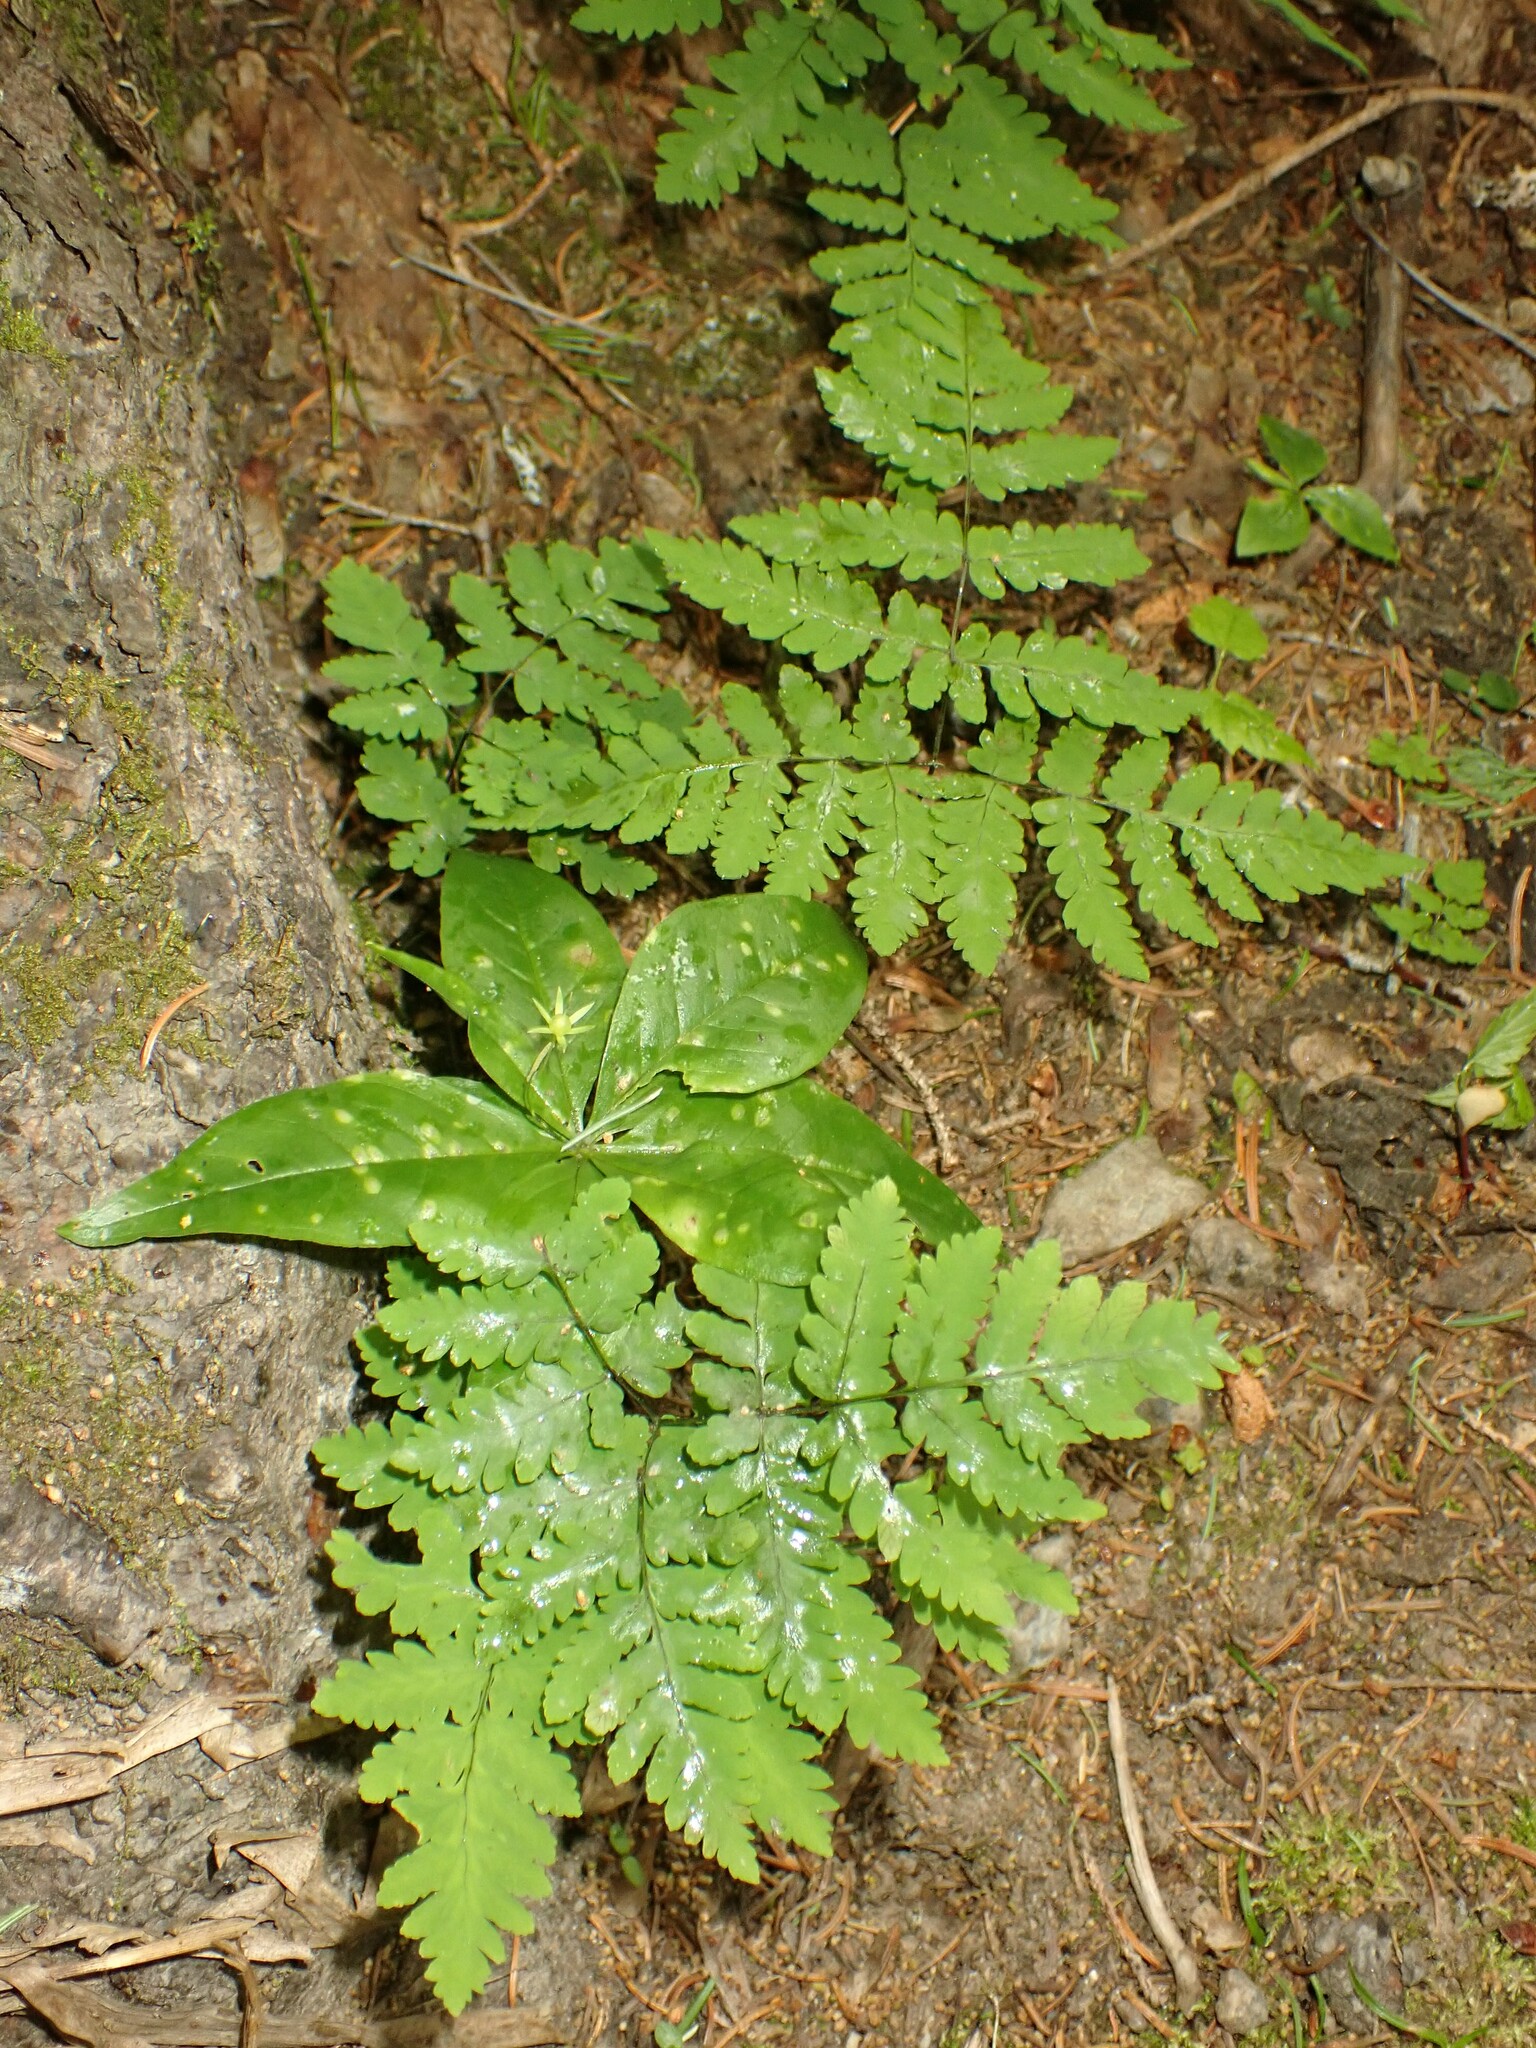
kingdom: Plantae
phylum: Tracheophyta
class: Polypodiopsida
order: Polypodiales
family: Cystopteridaceae
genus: Gymnocarpium
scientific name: Gymnocarpium dryopteris
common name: Oak fern
